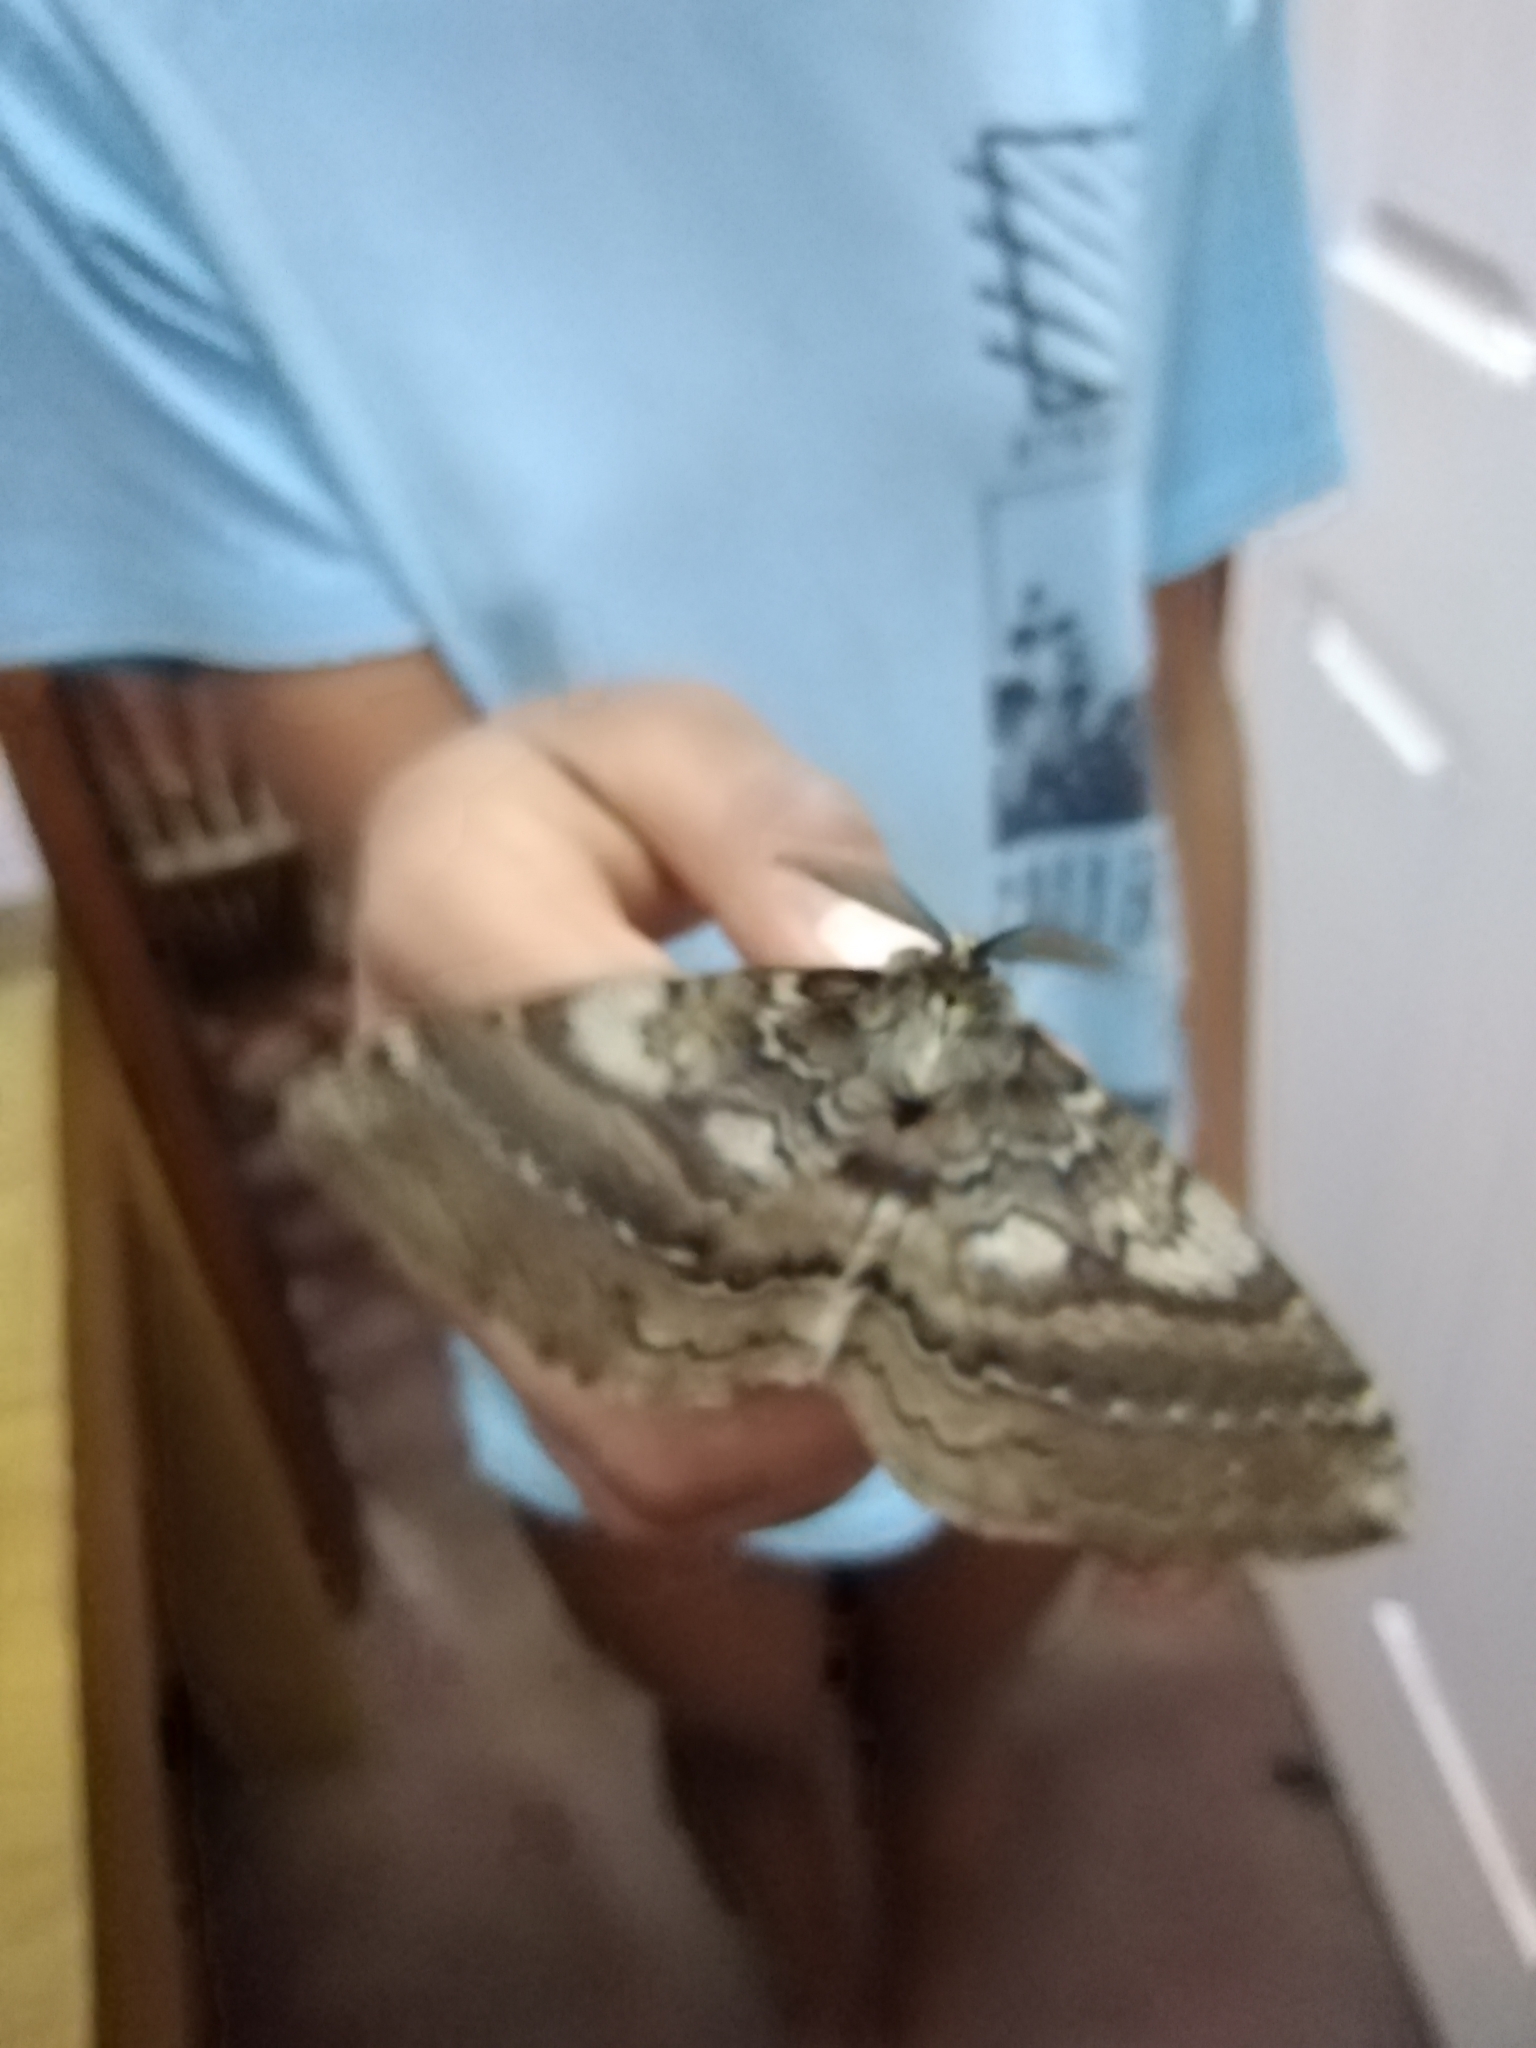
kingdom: Animalia
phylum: Arthropoda
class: Insecta
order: Lepidoptera
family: Eupterotidae
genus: Striphnopteryx
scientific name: Striphnopteryx edulis
